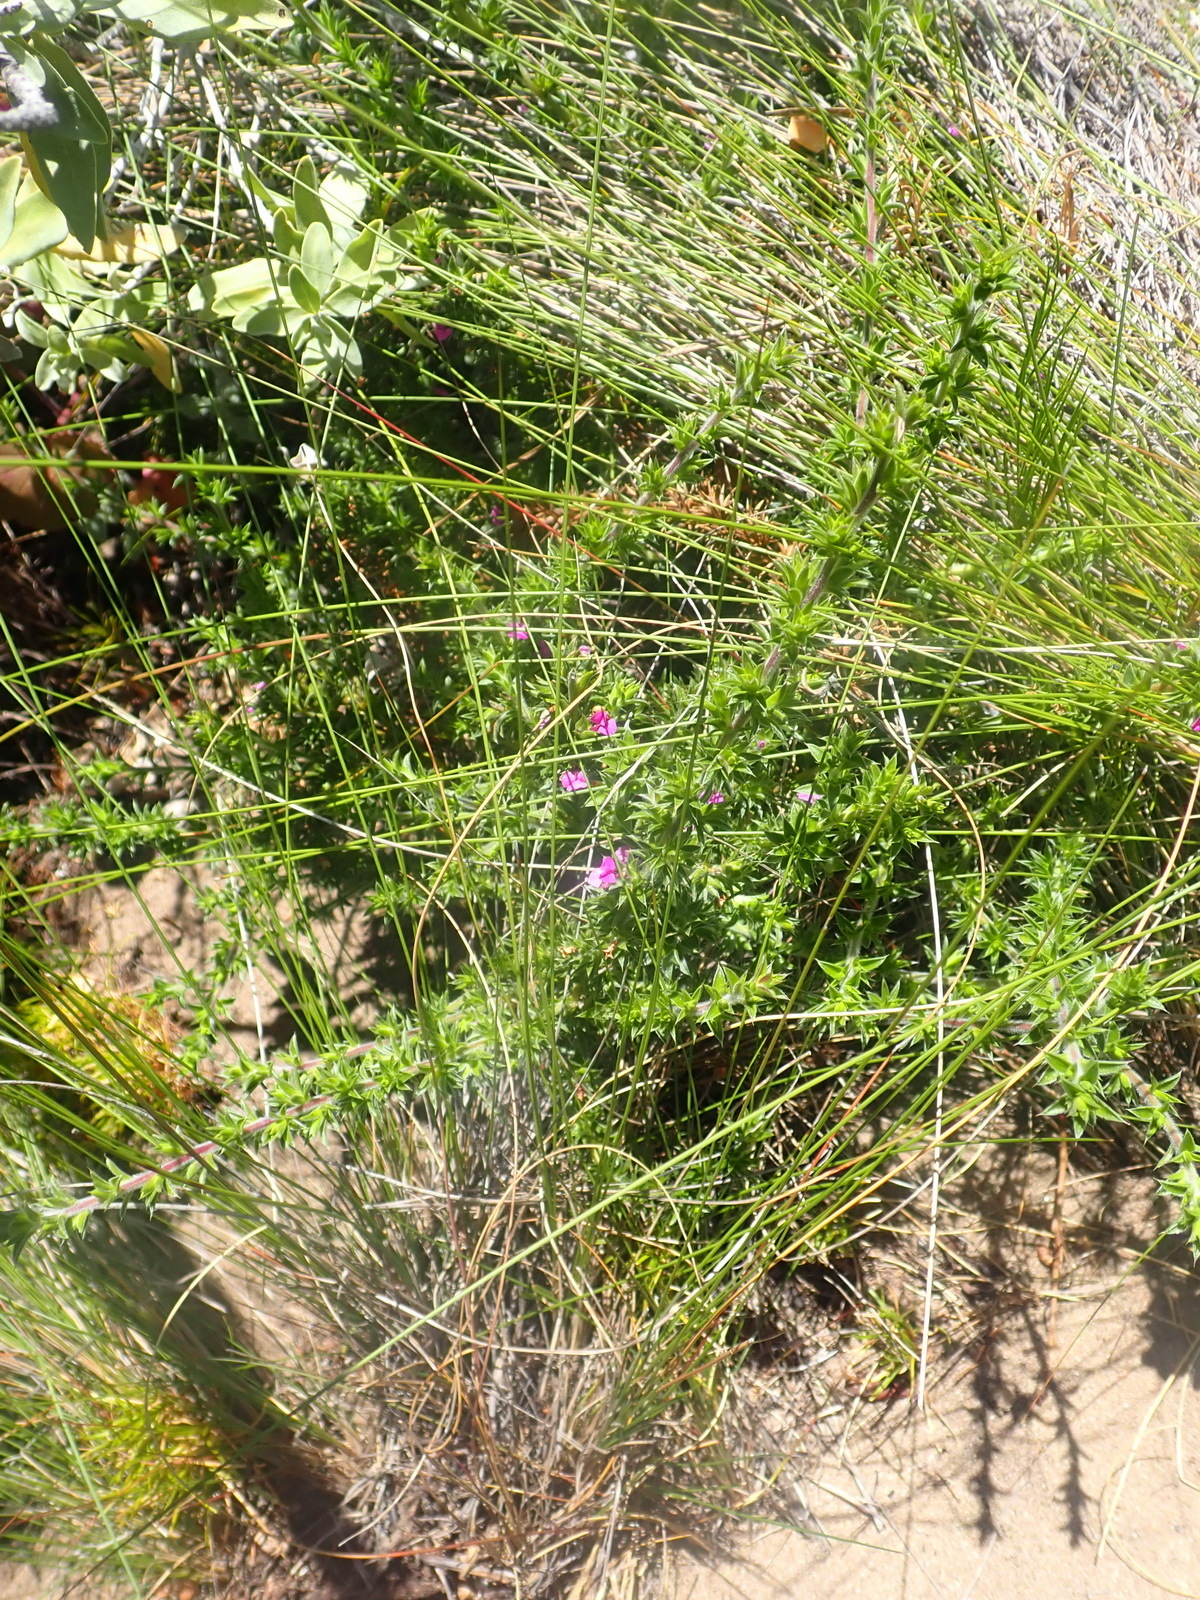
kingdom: Plantae
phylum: Tracheophyta
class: Magnoliopsida
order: Fabales
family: Polygalaceae
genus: Muraltia
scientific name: Muraltia squarrosa
